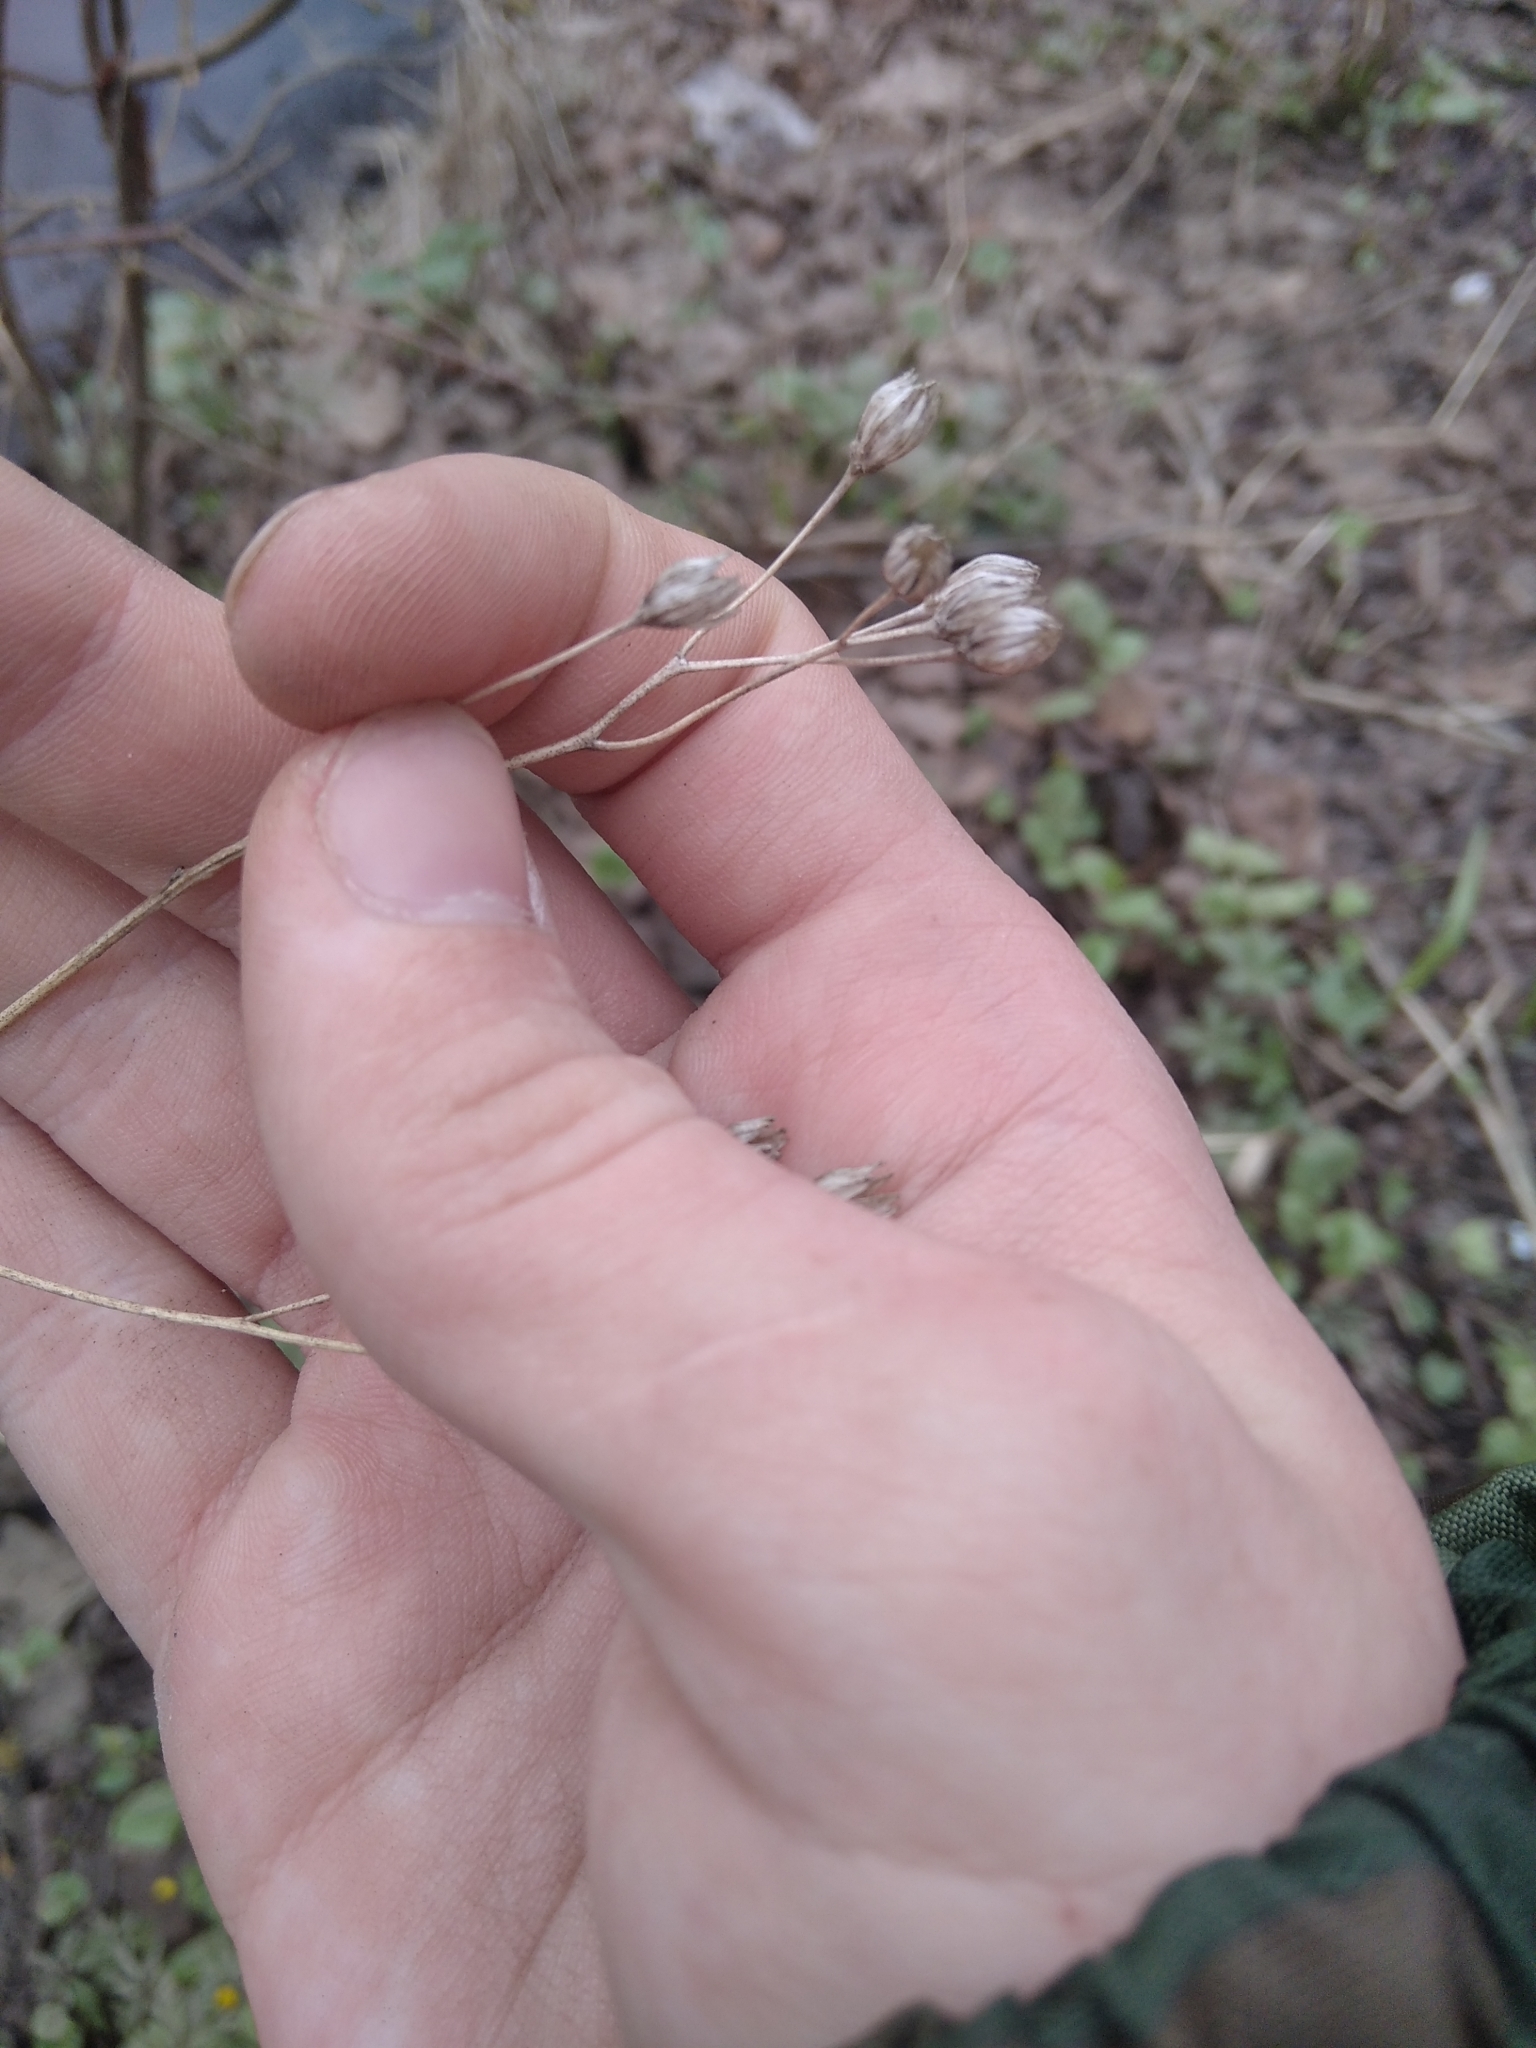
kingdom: Plantae
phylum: Tracheophyta
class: Magnoliopsida
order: Asterales
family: Asteraceae
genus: Lapsana
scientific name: Lapsana communis
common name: Nipplewort
